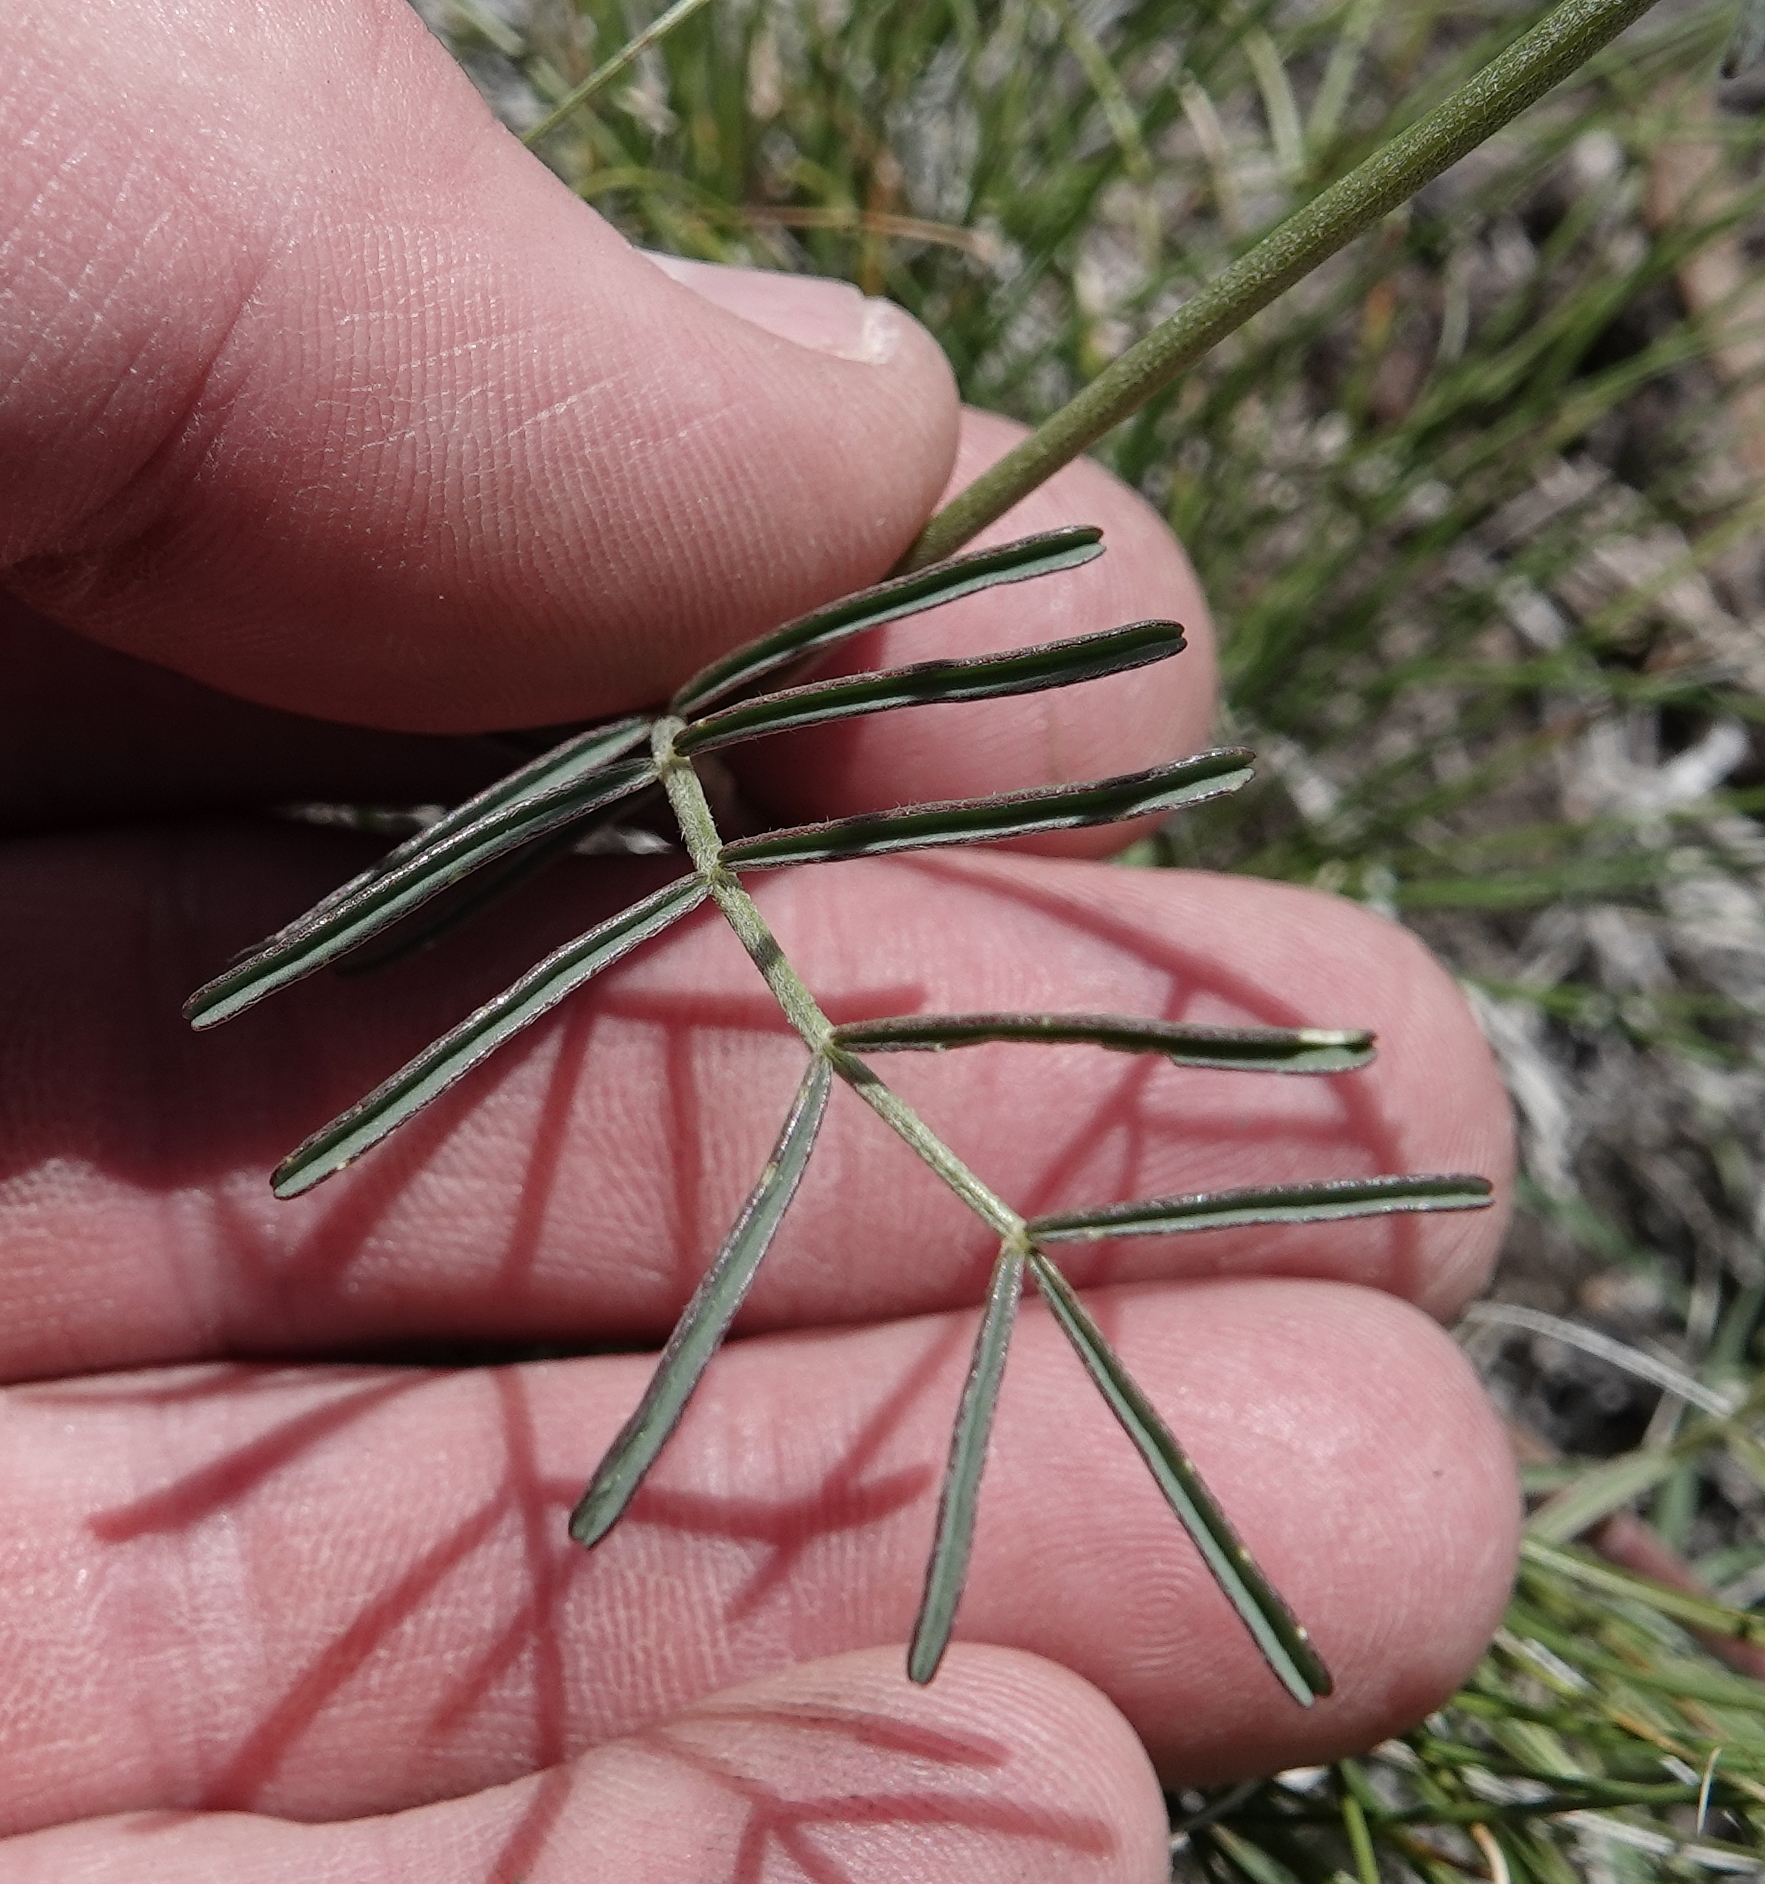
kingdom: Plantae
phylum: Tracheophyta
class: Magnoliopsida
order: Fabales
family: Fabaceae
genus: Astragalus
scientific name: Astragalus gracilis
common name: Slender milk-vetch
